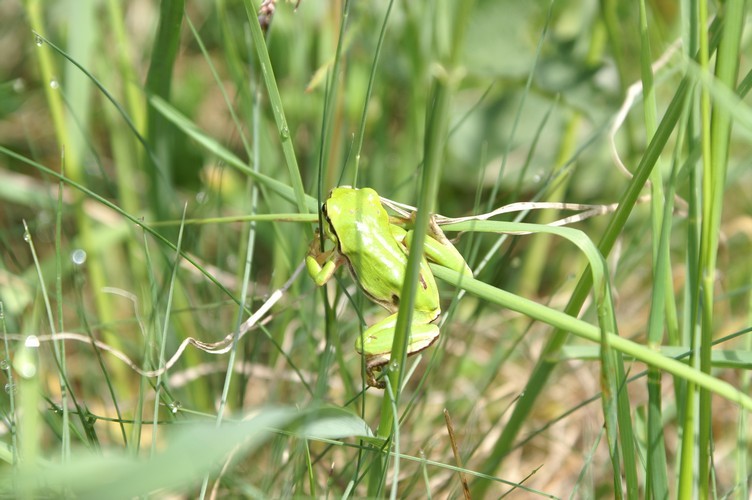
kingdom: Animalia
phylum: Chordata
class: Amphibia
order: Anura
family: Hylidae
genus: Hyla
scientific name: Hyla arborea
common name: Common tree frog
